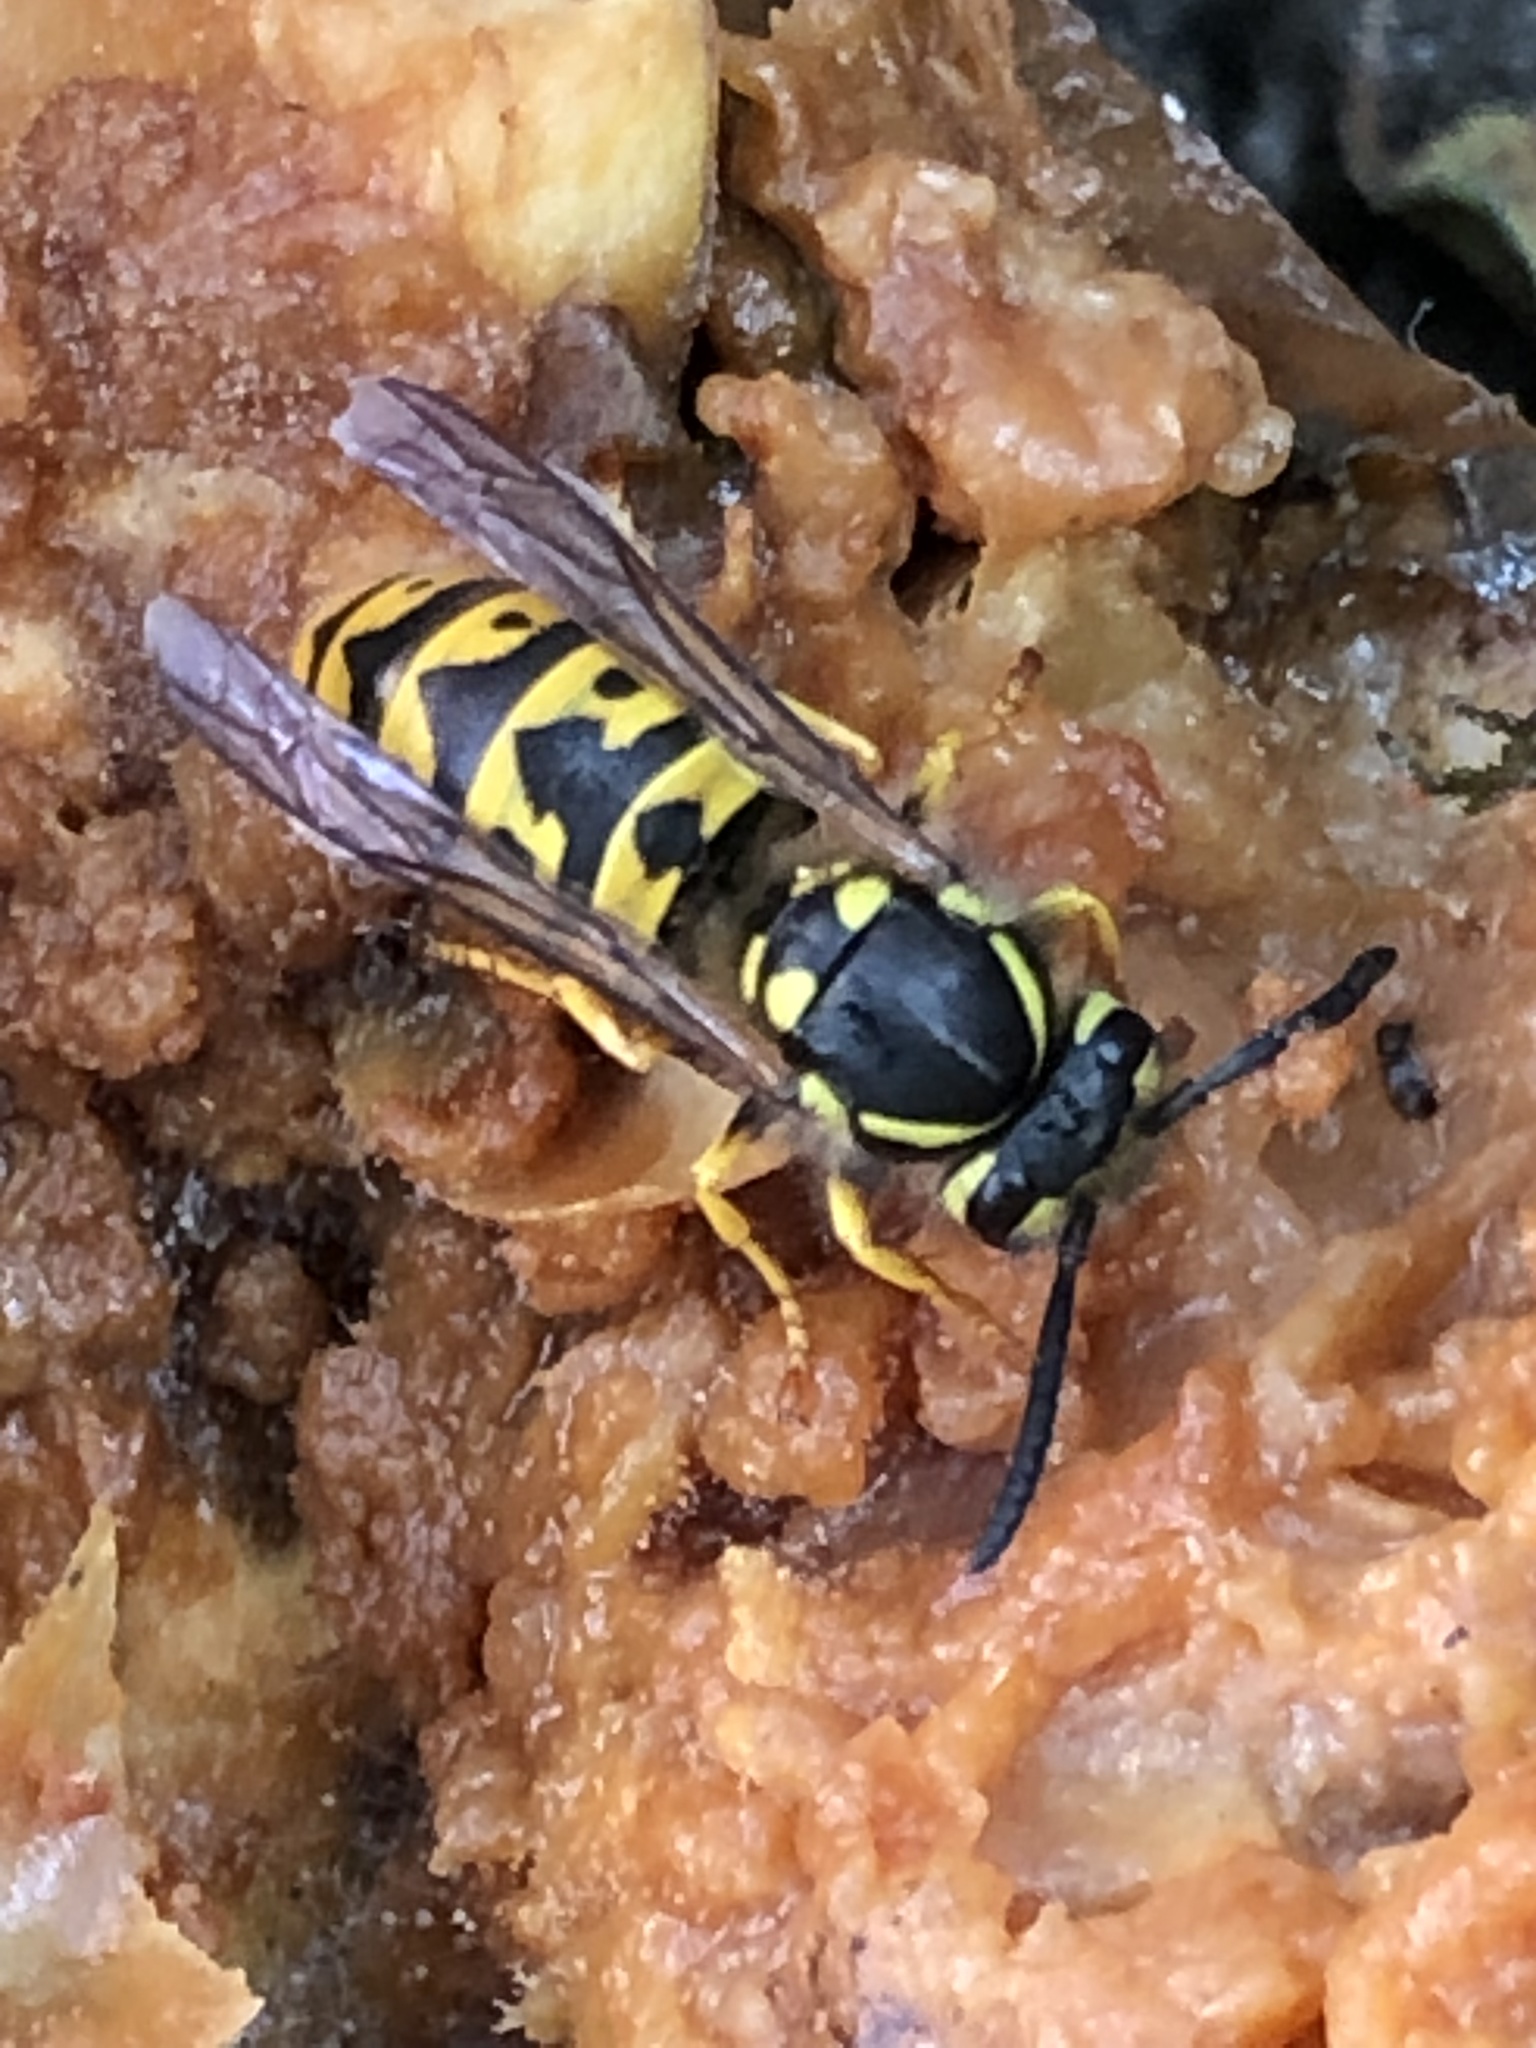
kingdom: Animalia
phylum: Arthropoda
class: Insecta
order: Hymenoptera
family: Vespidae
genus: Vespula
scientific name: Vespula germanica
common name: German wasp
